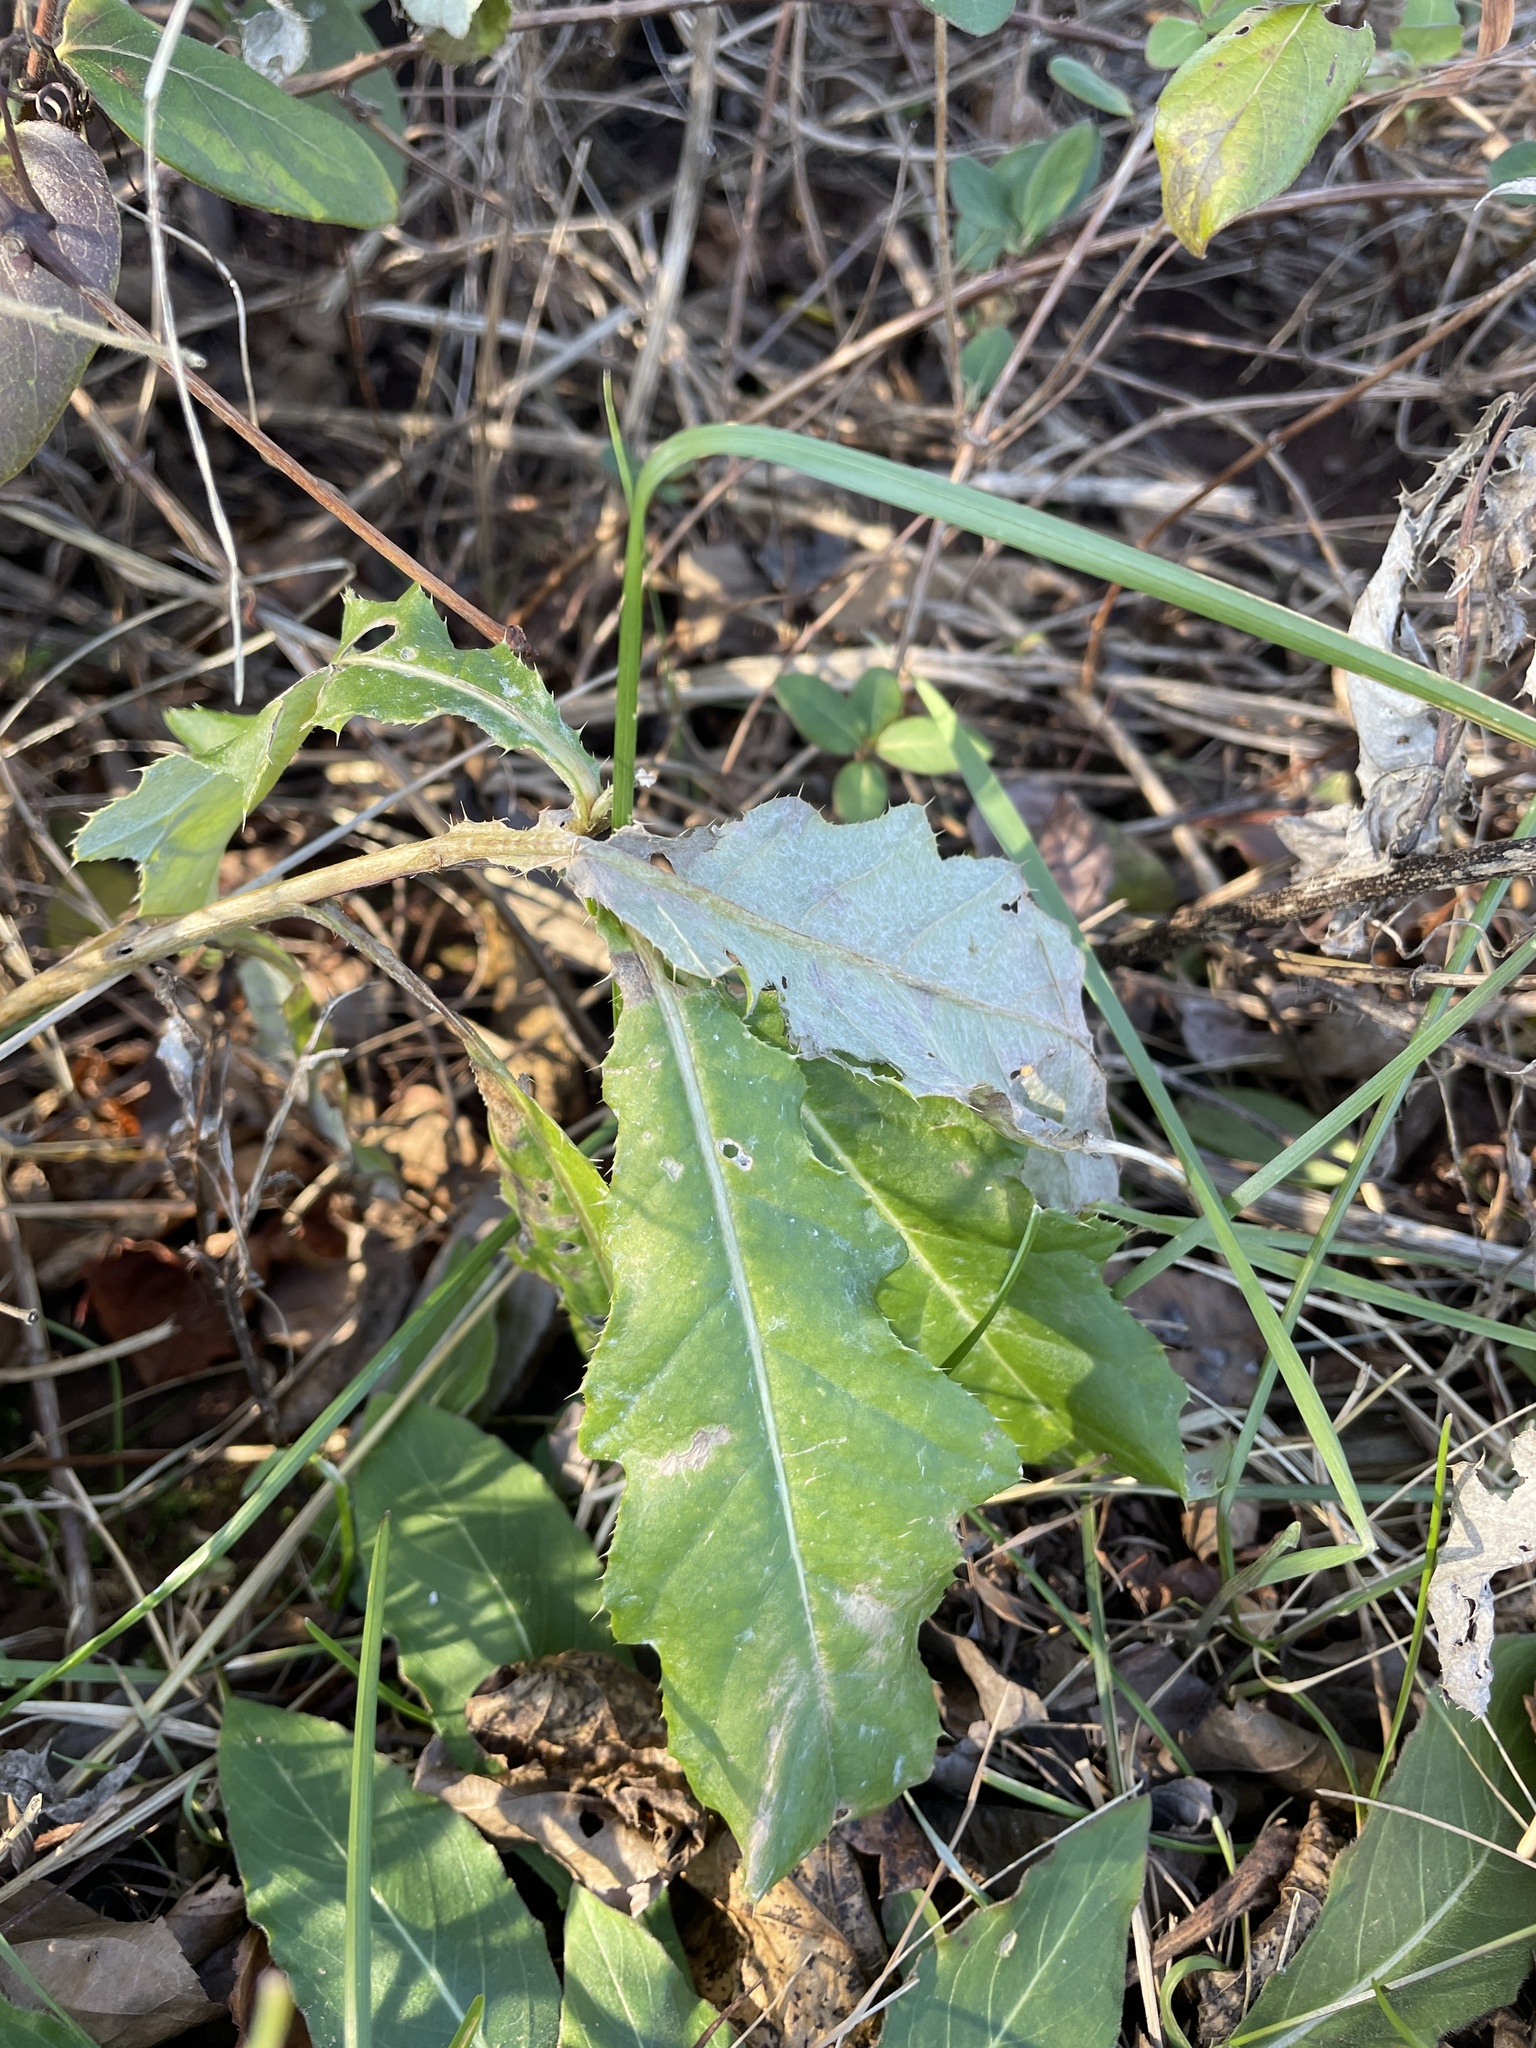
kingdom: Plantae
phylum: Tracheophyta
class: Magnoliopsida
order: Asterales
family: Asteraceae
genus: Cirsium
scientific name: Cirsium arvense
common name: Creeping thistle
